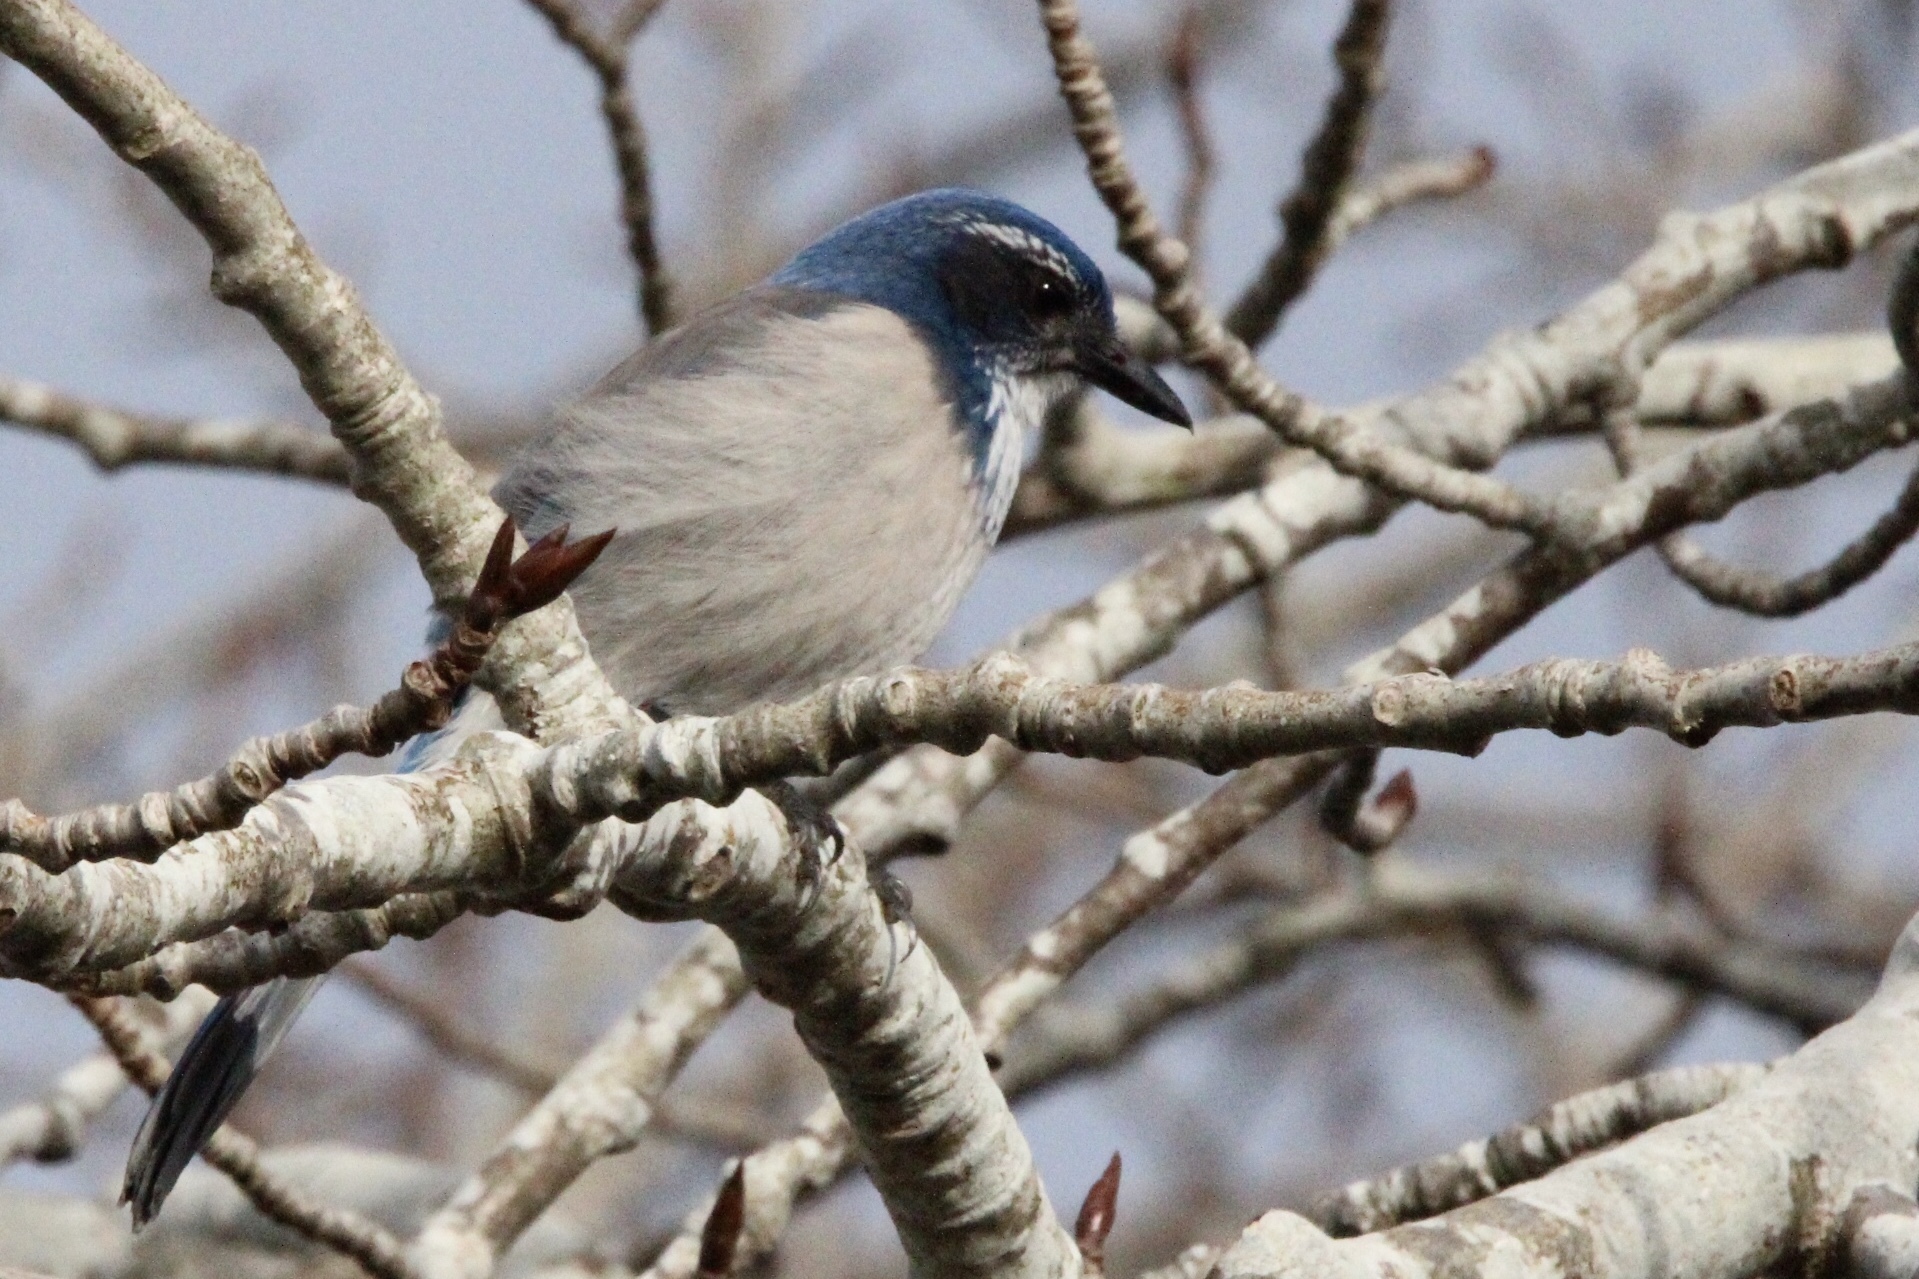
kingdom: Animalia
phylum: Chordata
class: Aves
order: Passeriformes
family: Corvidae
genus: Aphelocoma
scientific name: Aphelocoma californica
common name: California scrub-jay
